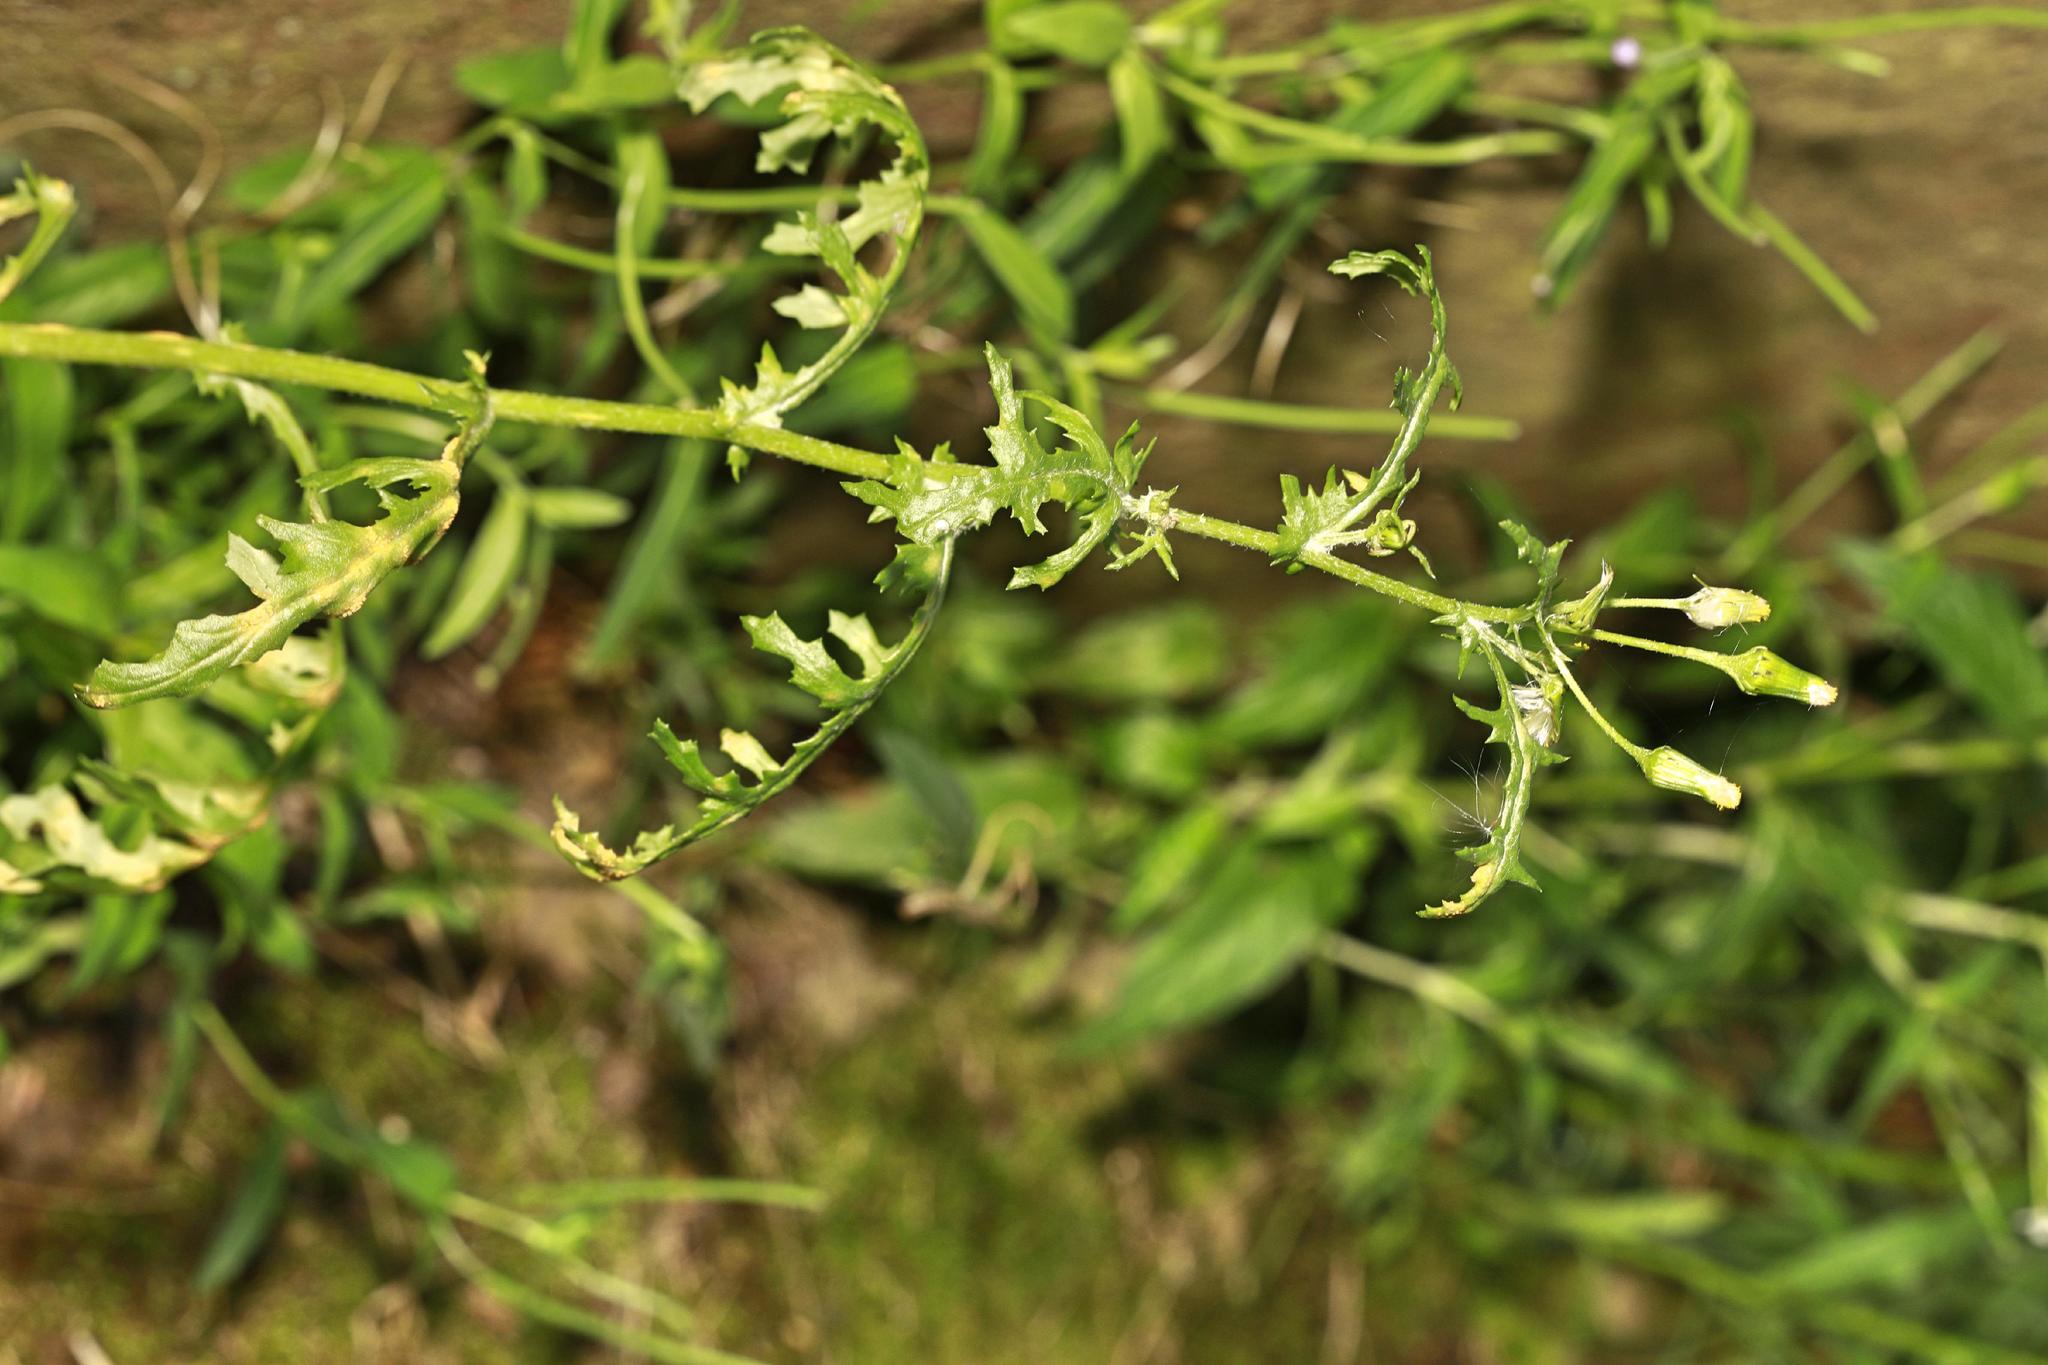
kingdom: Plantae
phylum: Tracheophyta
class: Magnoliopsida
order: Asterales
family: Asteraceae
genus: Senecio
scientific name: Senecio vulgaris
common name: Old-man-in-the-spring
